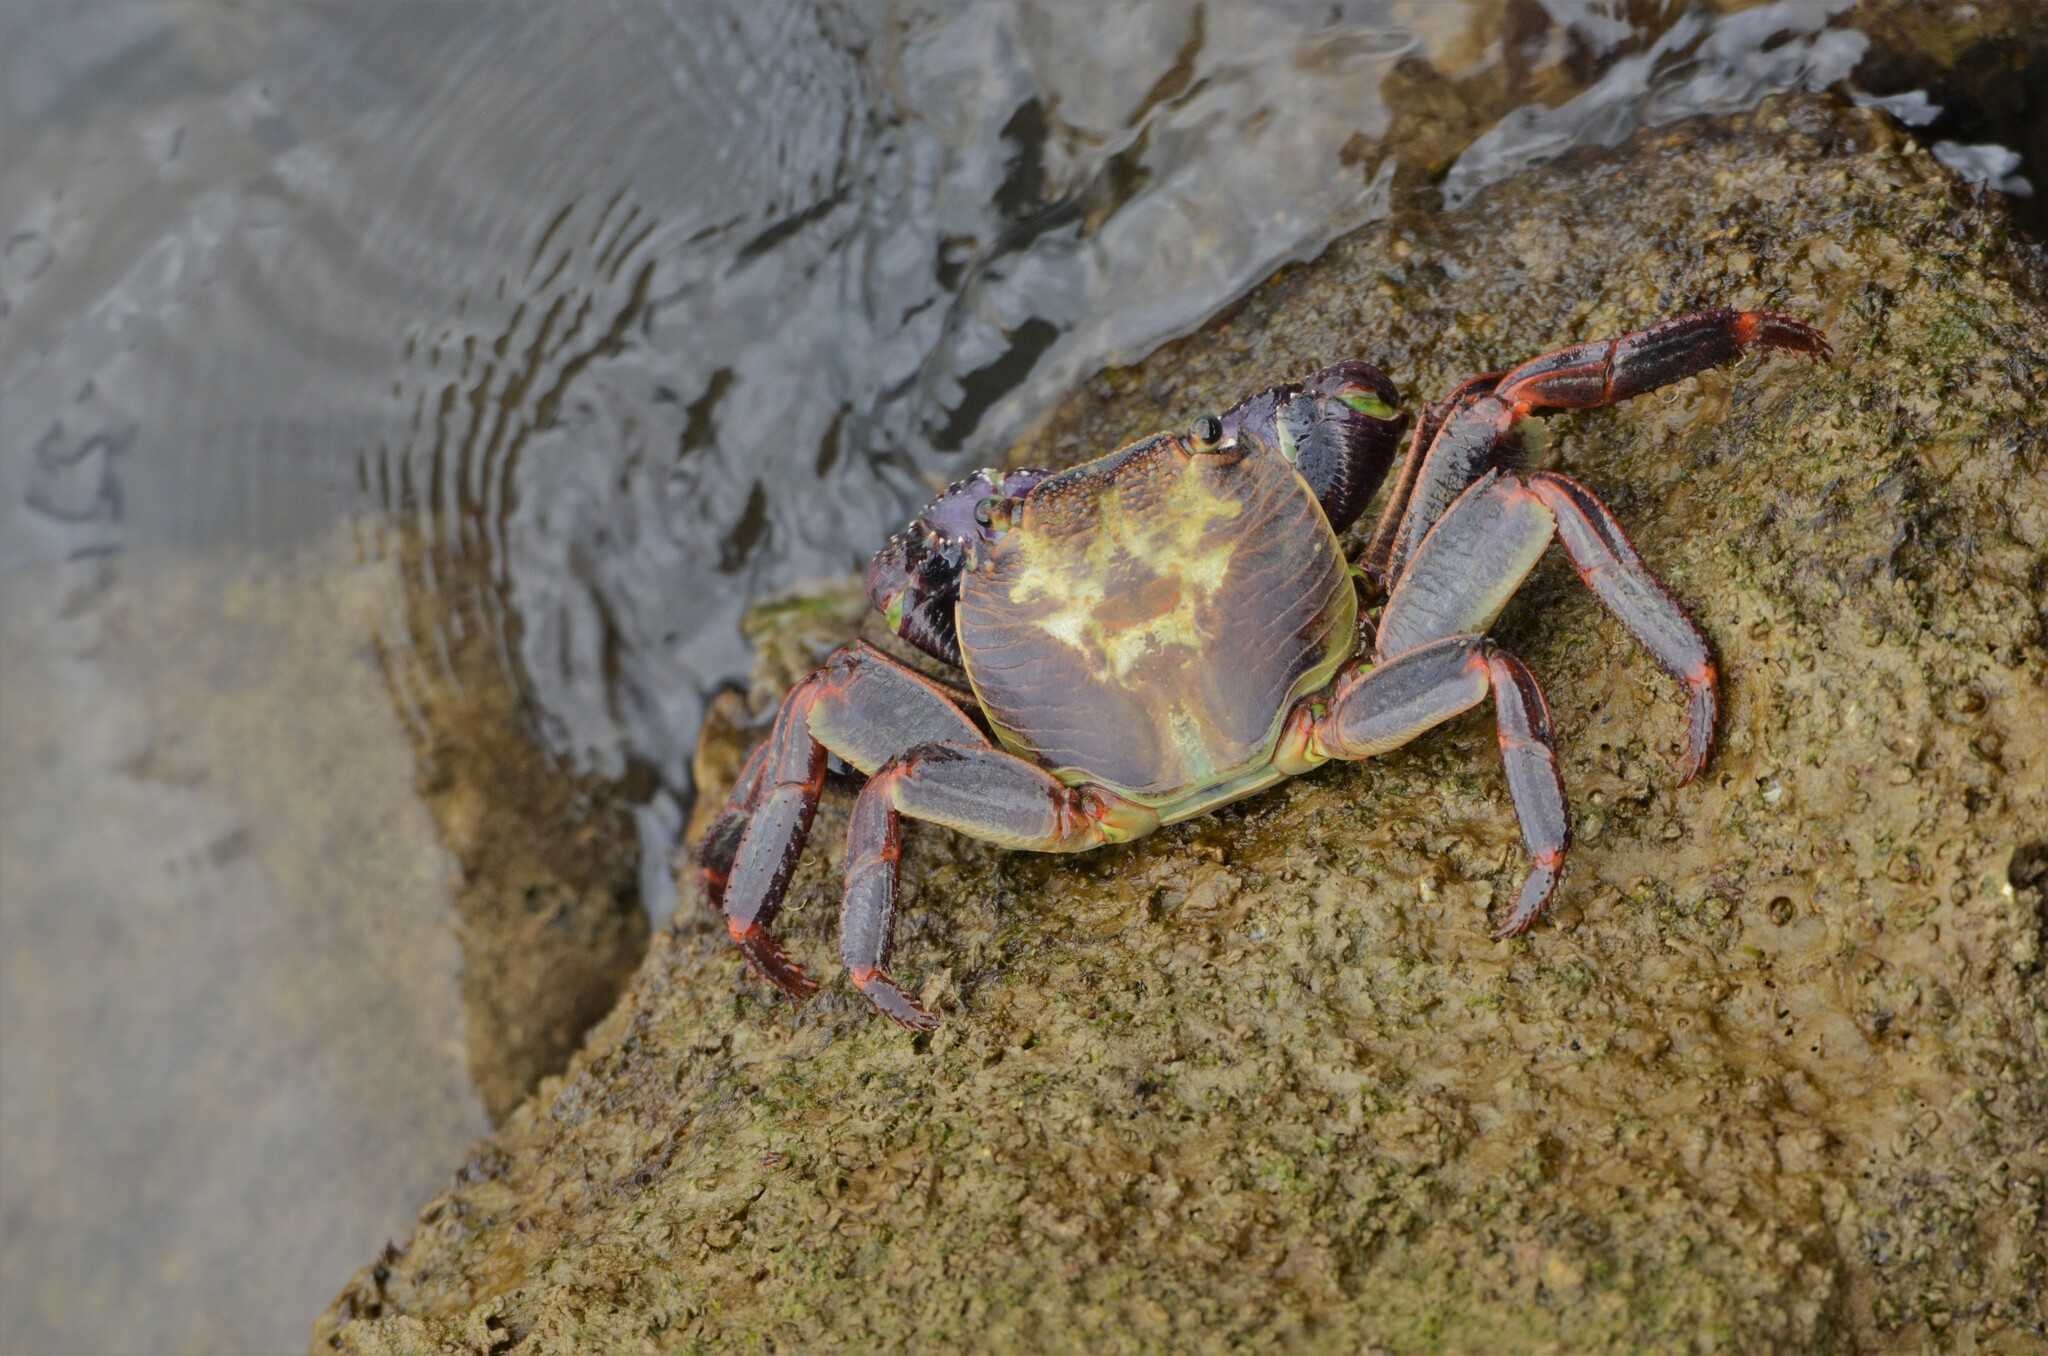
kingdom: Animalia
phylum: Arthropoda
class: Malacostraca
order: Decapoda
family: Grapsidae
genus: Leptograpsus
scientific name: Leptograpsus variegatus
